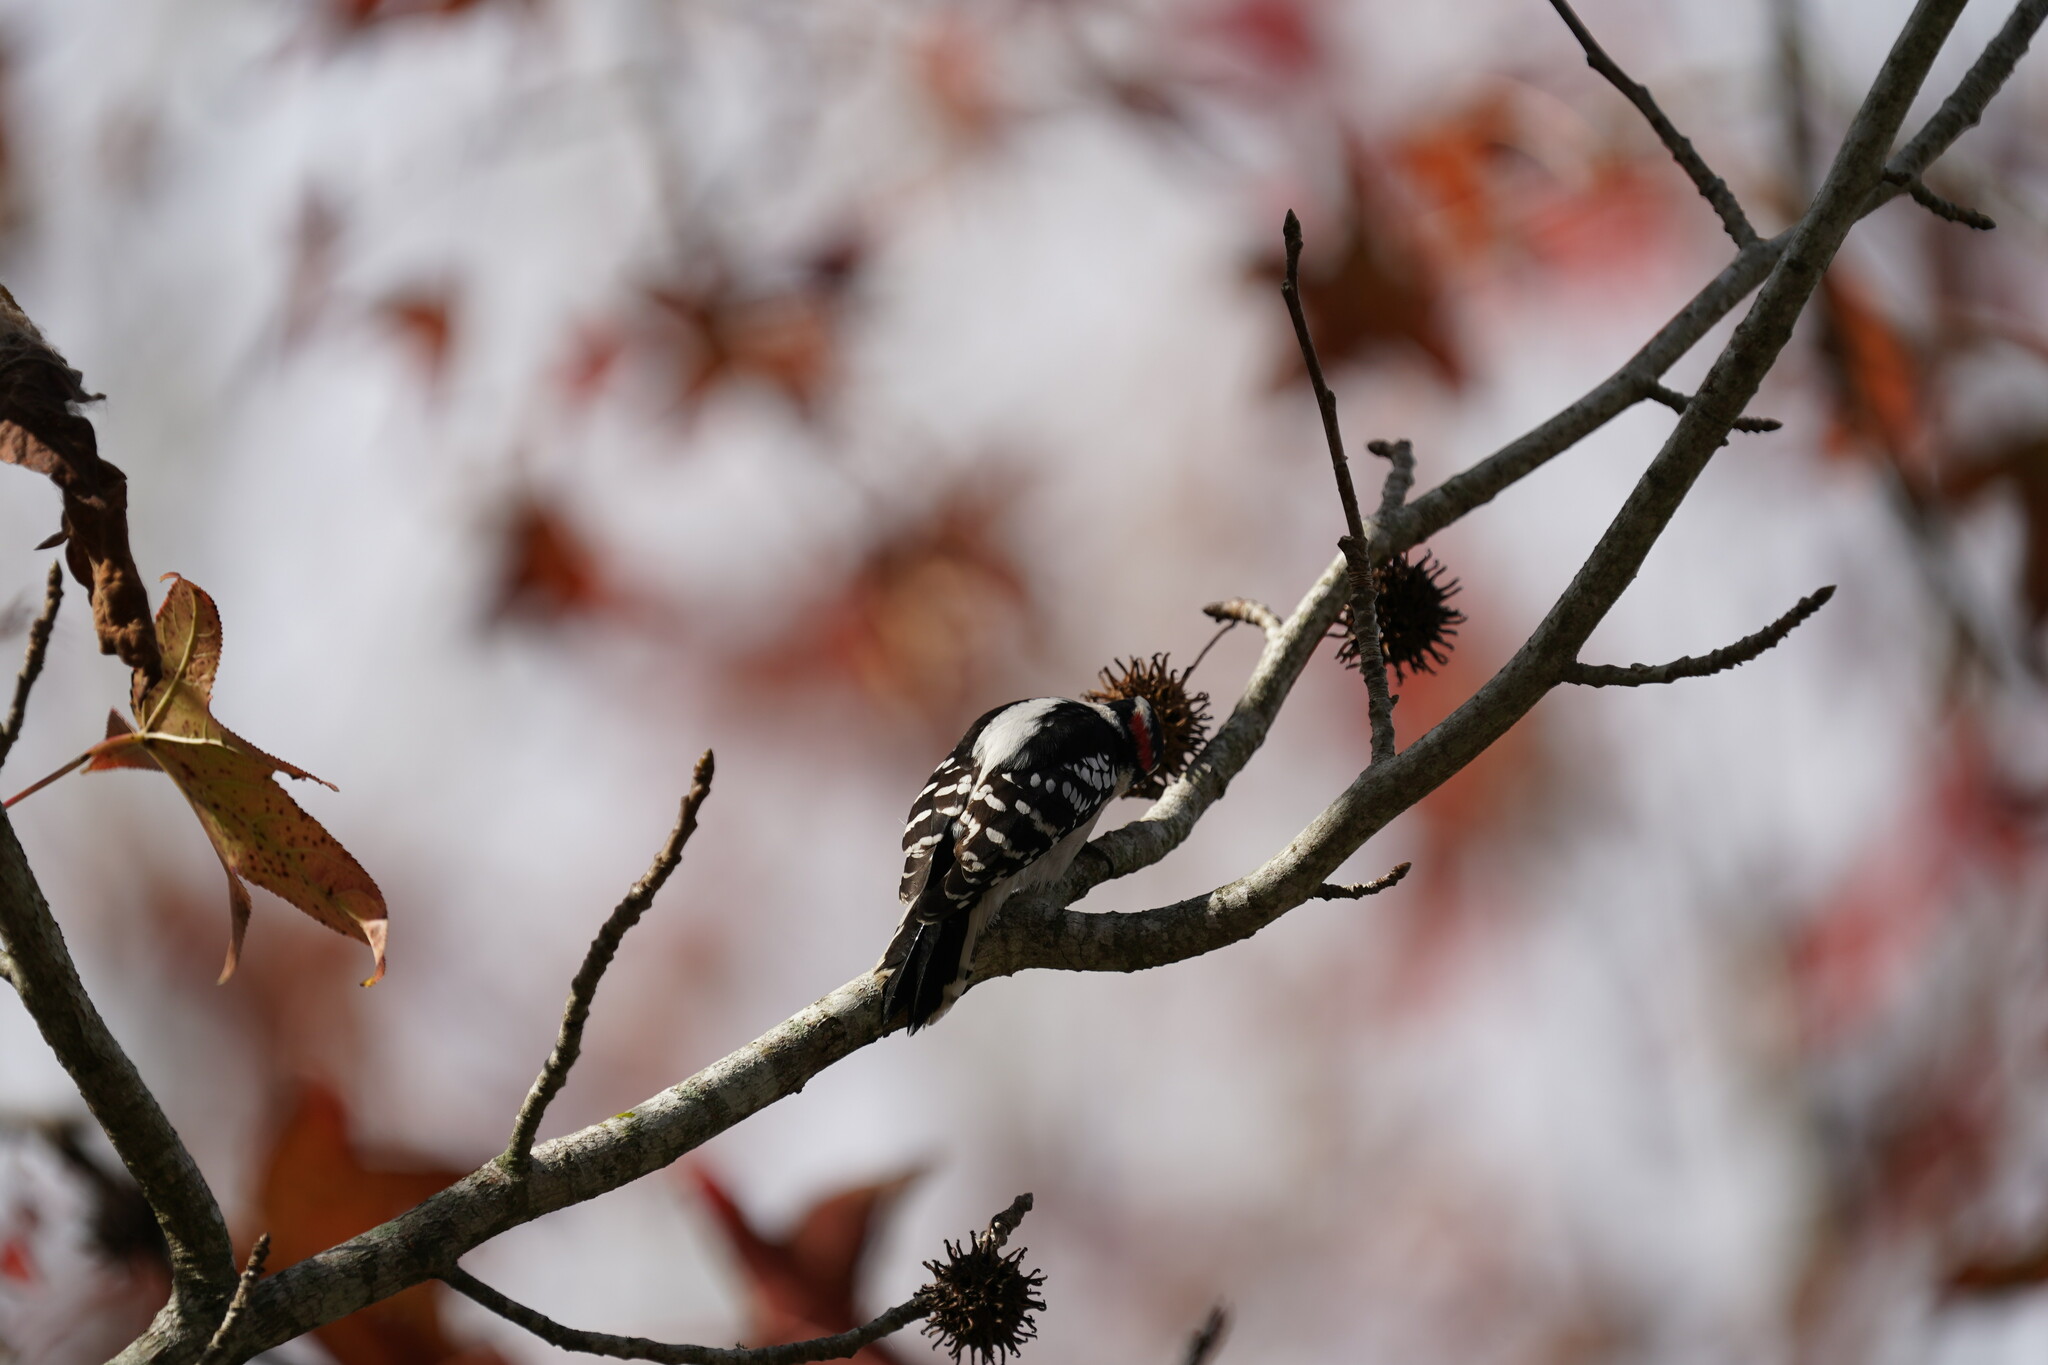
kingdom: Animalia
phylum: Chordata
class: Aves
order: Piciformes
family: Picidae
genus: Dryobates
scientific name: Dryobates pubescens
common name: Downy woodpecker
